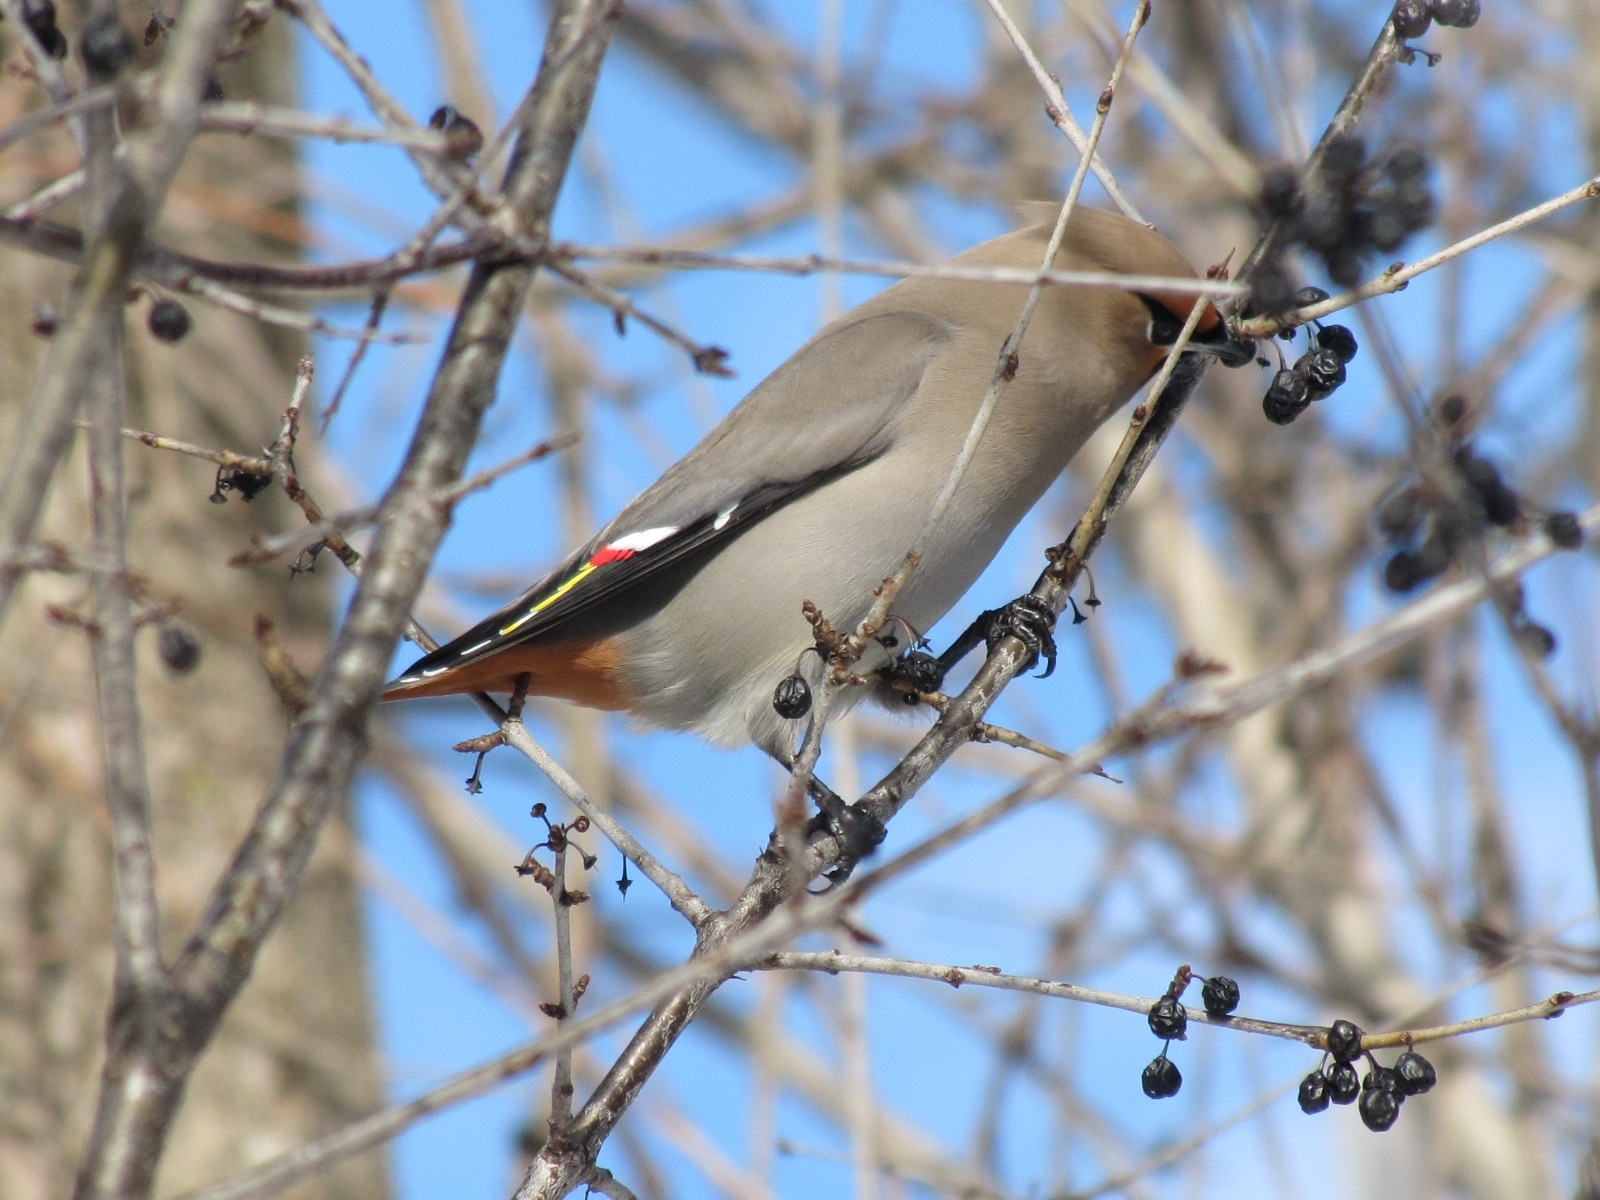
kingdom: Animalia
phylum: Chordata
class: Aves
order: Passeriformes
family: Bombycillidae
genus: Bombycilla
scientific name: Bombycilla garrulus
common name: Bohemian waxwing
